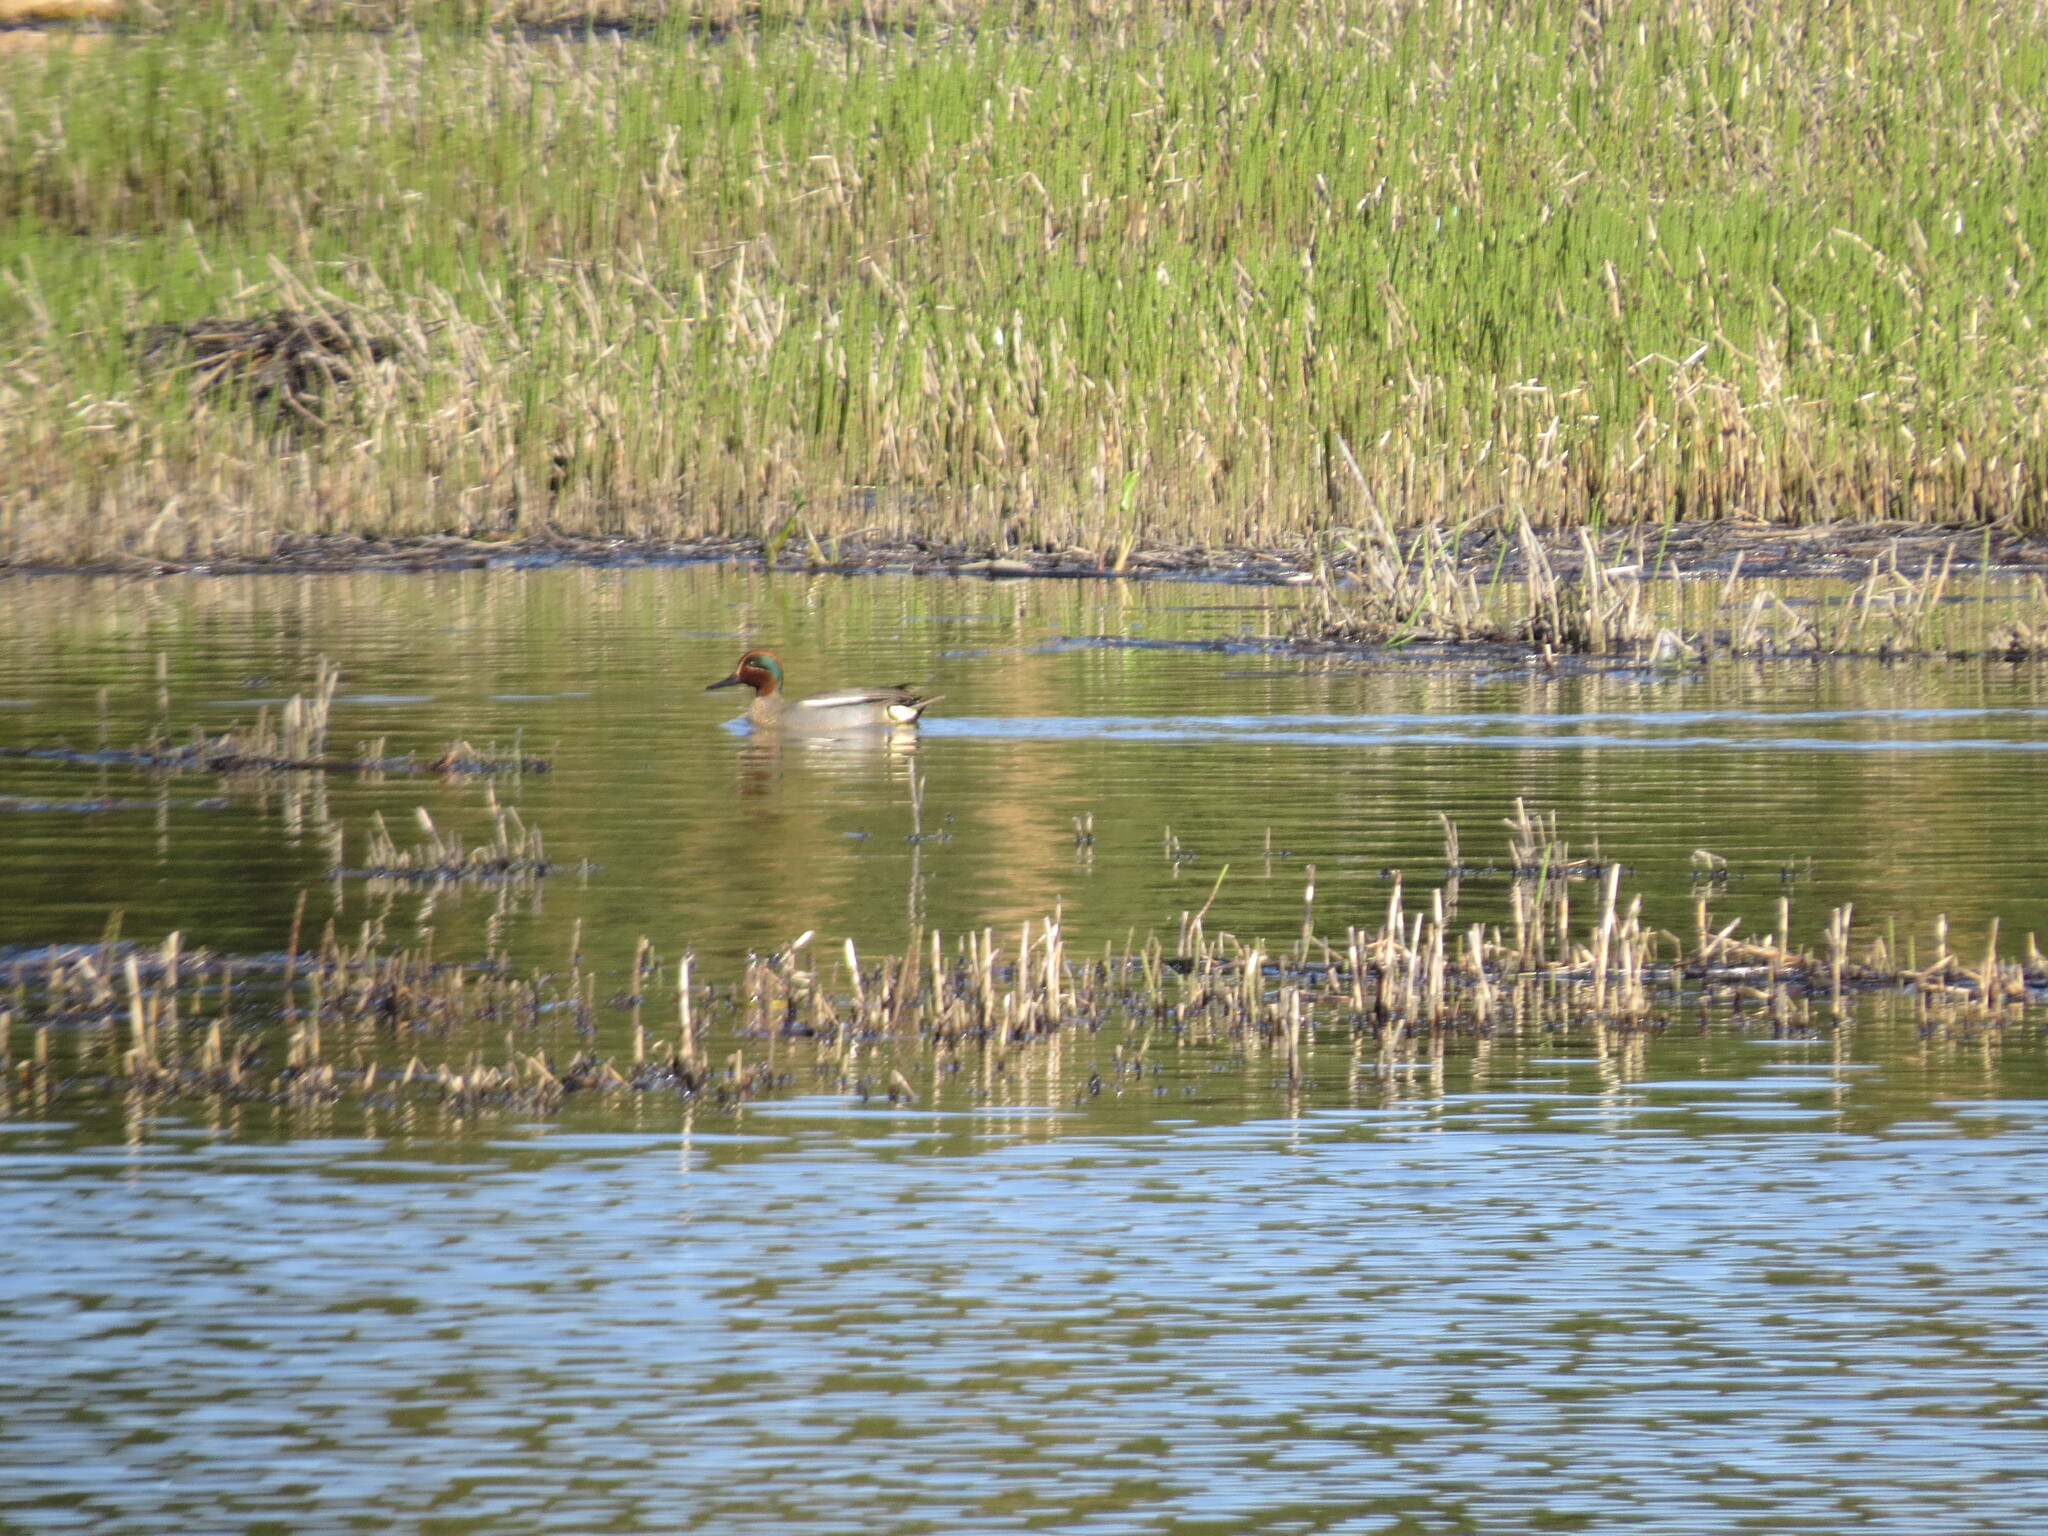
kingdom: Animalia
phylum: Chordata
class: Aves
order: Anseriformes
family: Anatidae
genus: Anas
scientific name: Anas crecca
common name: Eurasian teal
